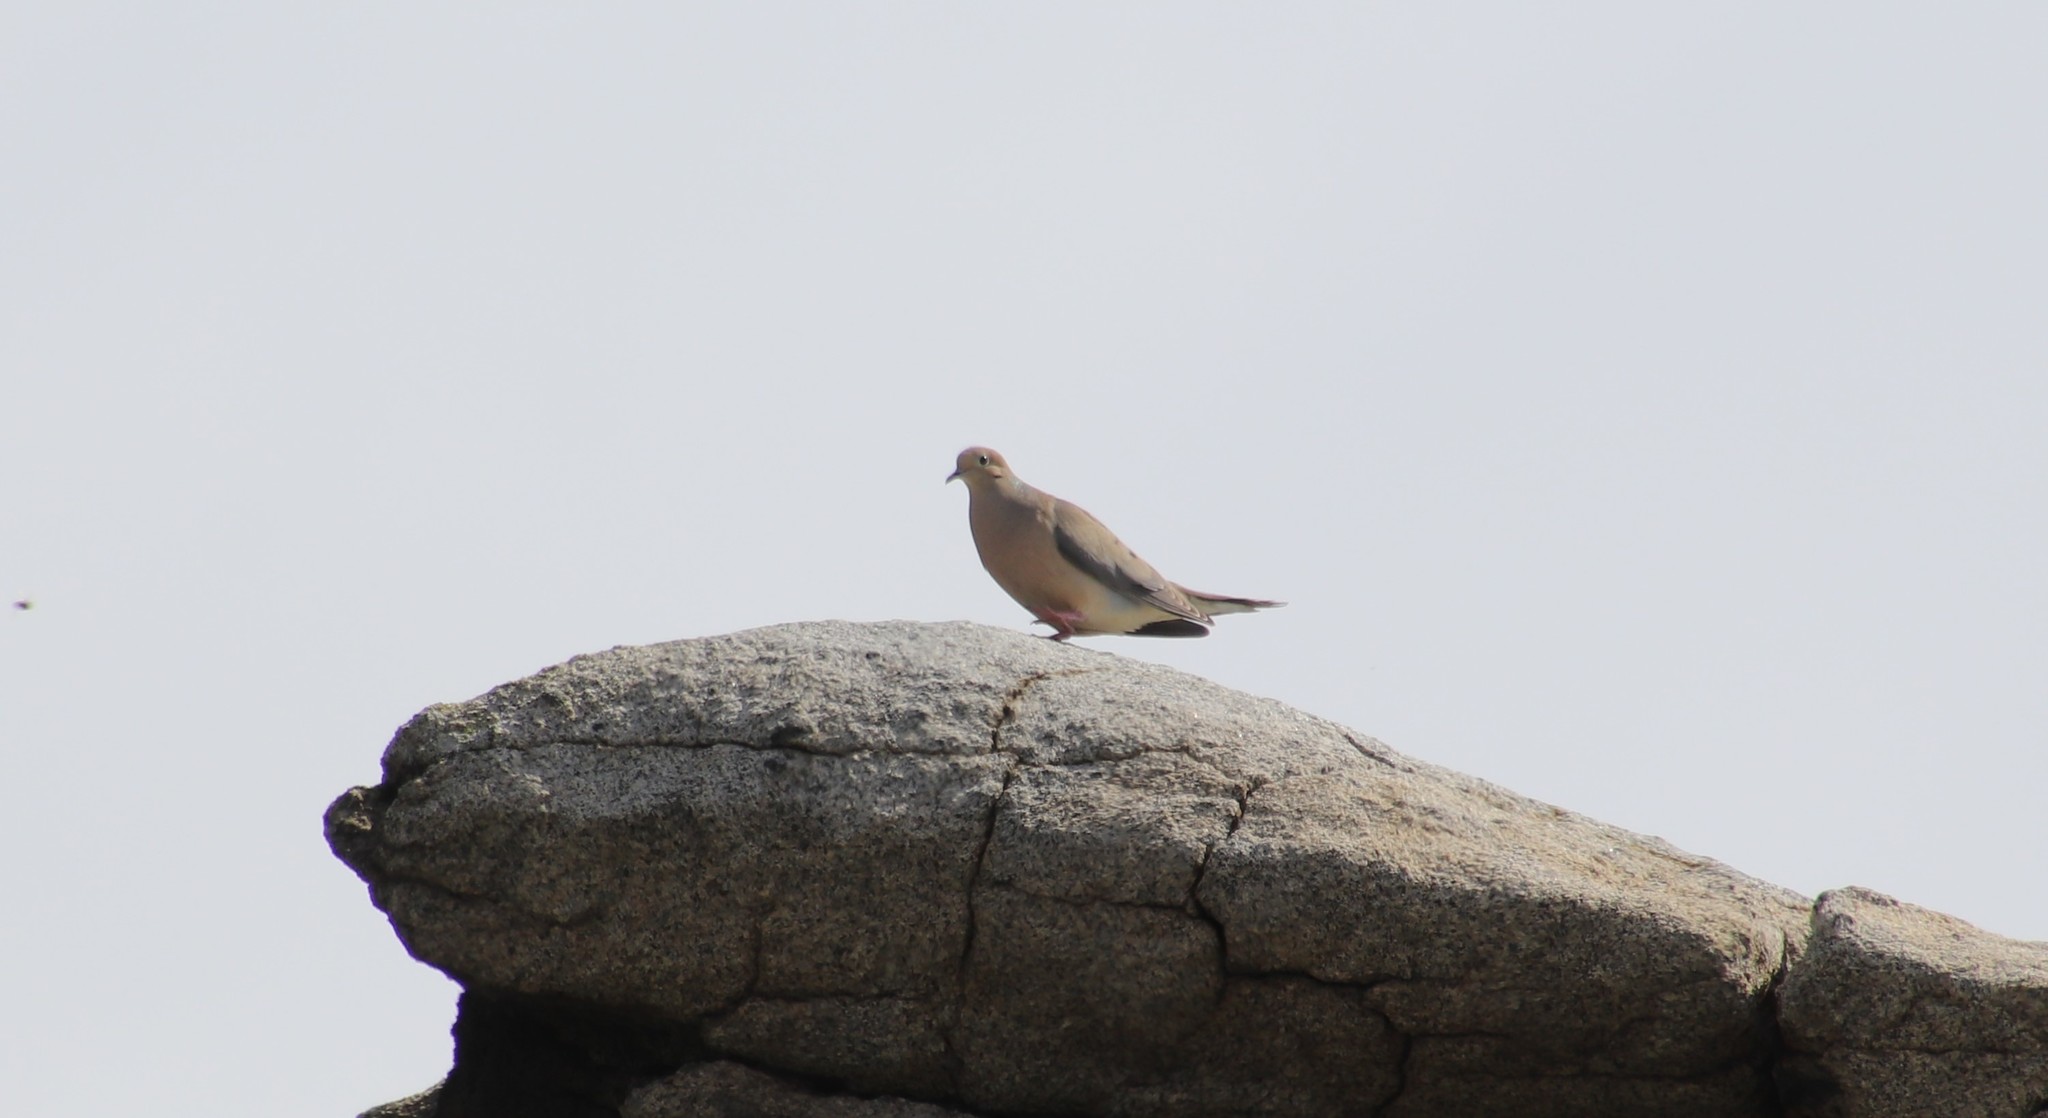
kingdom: Animalia
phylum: Chordata
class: Aves
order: Columbiformes
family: Columbidae
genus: Zenaida
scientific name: Zenaida macroura
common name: Mourning dove
